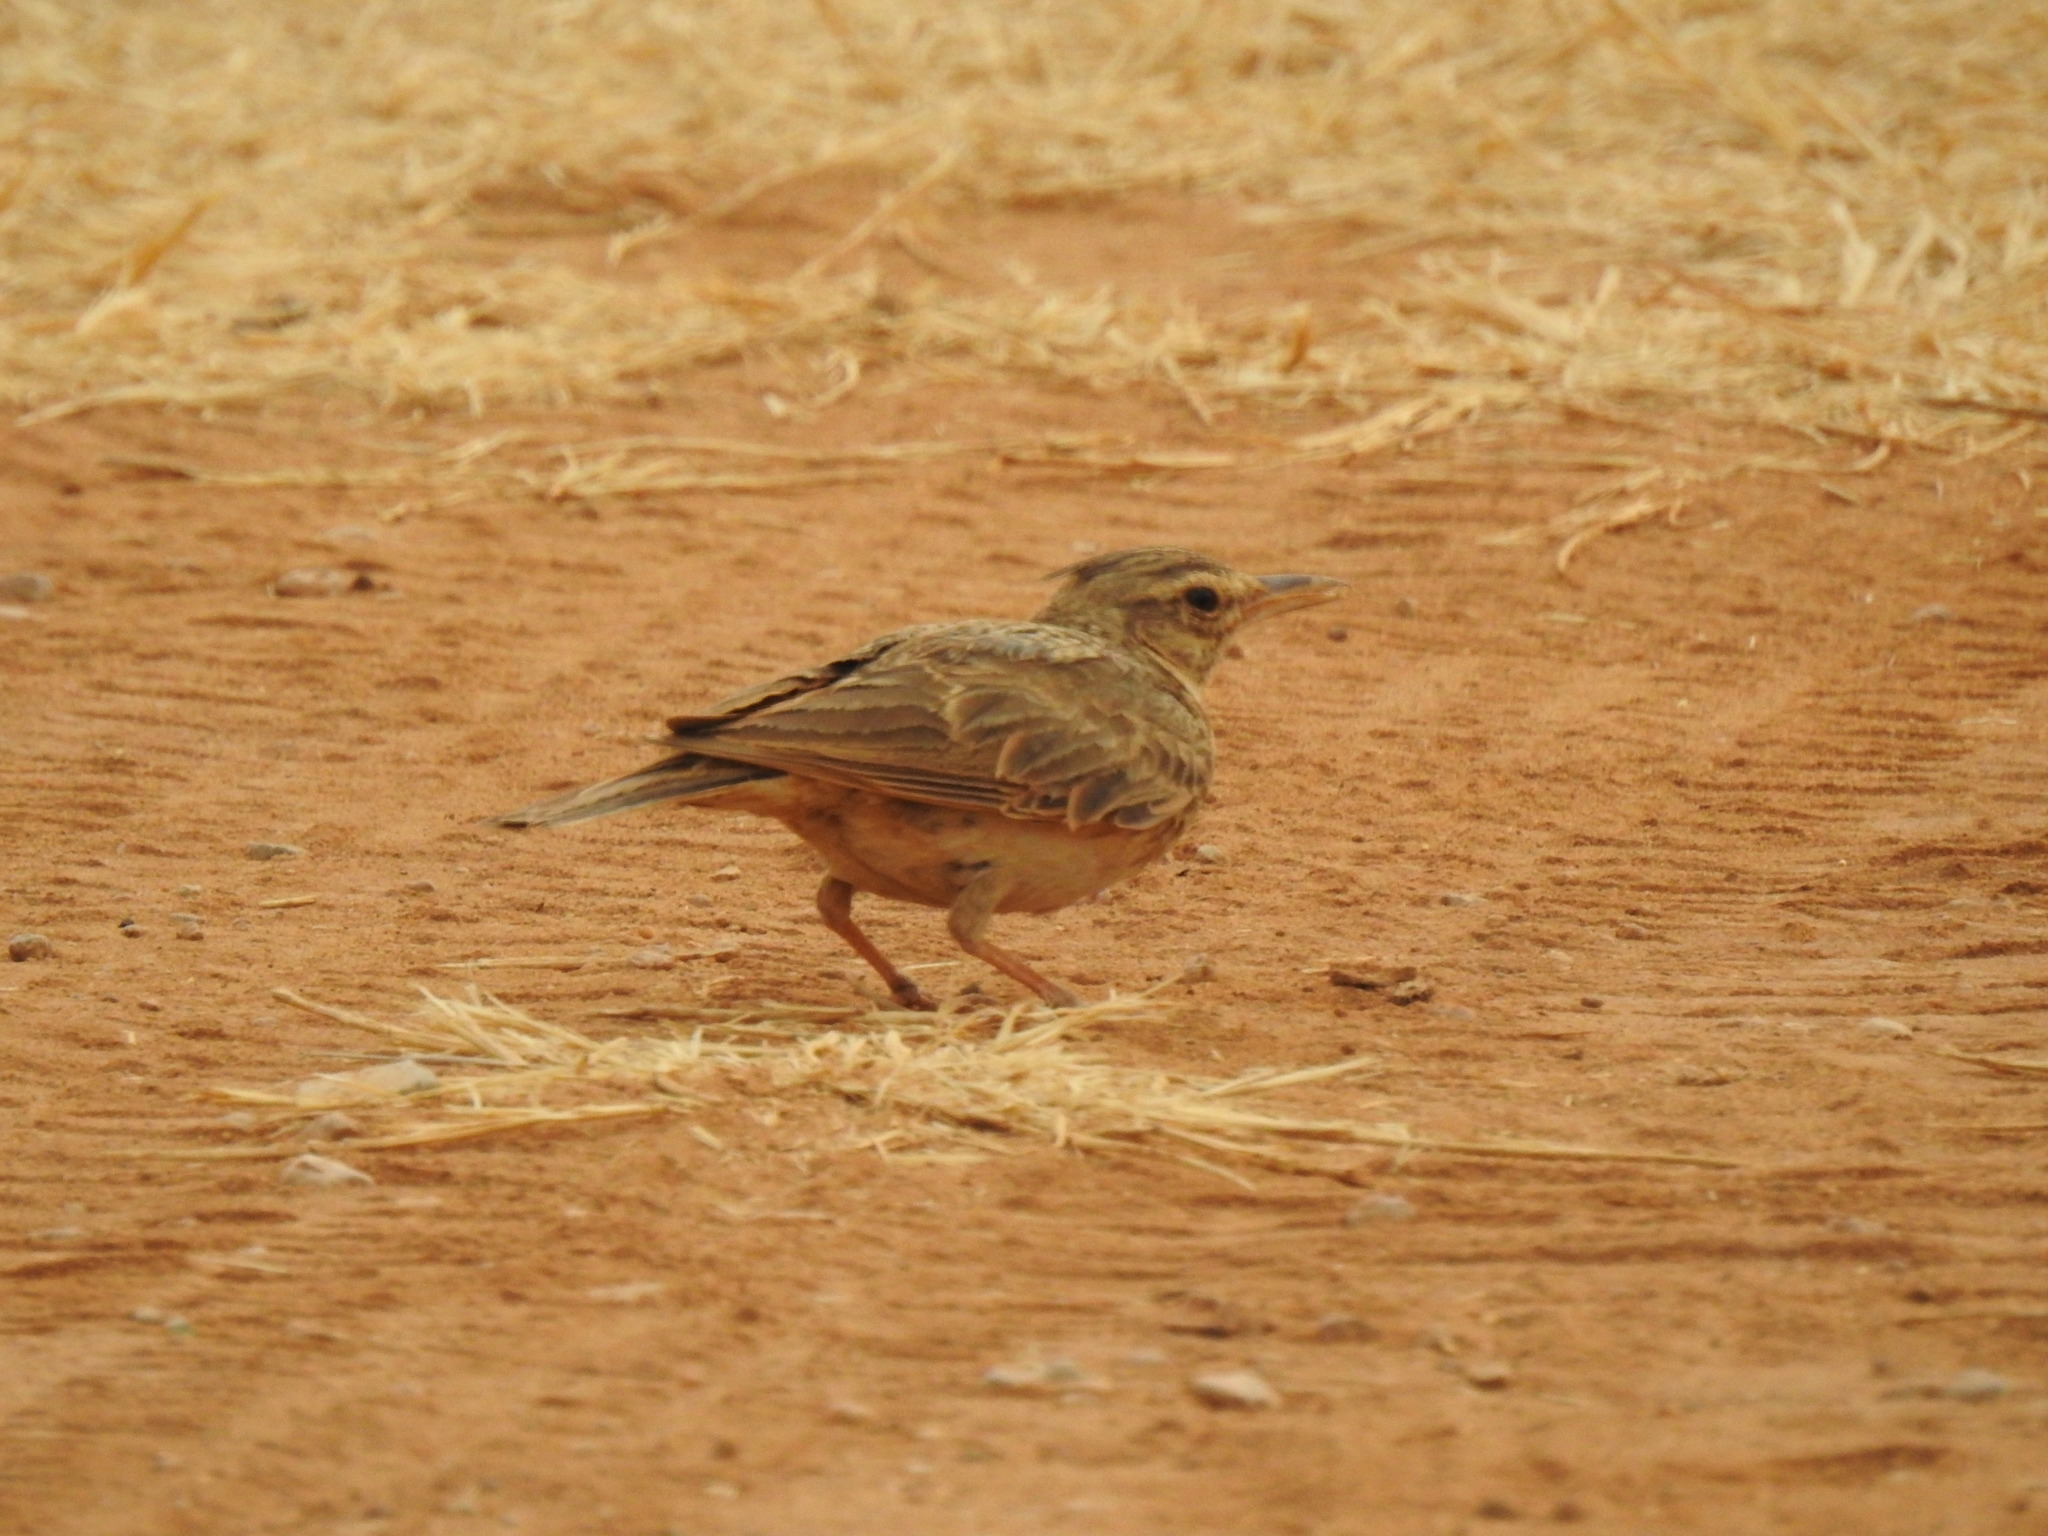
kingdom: Animalia
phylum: Chordata
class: Aves
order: Passeriformes
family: Alaudidae
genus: Galerida
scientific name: Galerida cristata
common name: Crested lark
